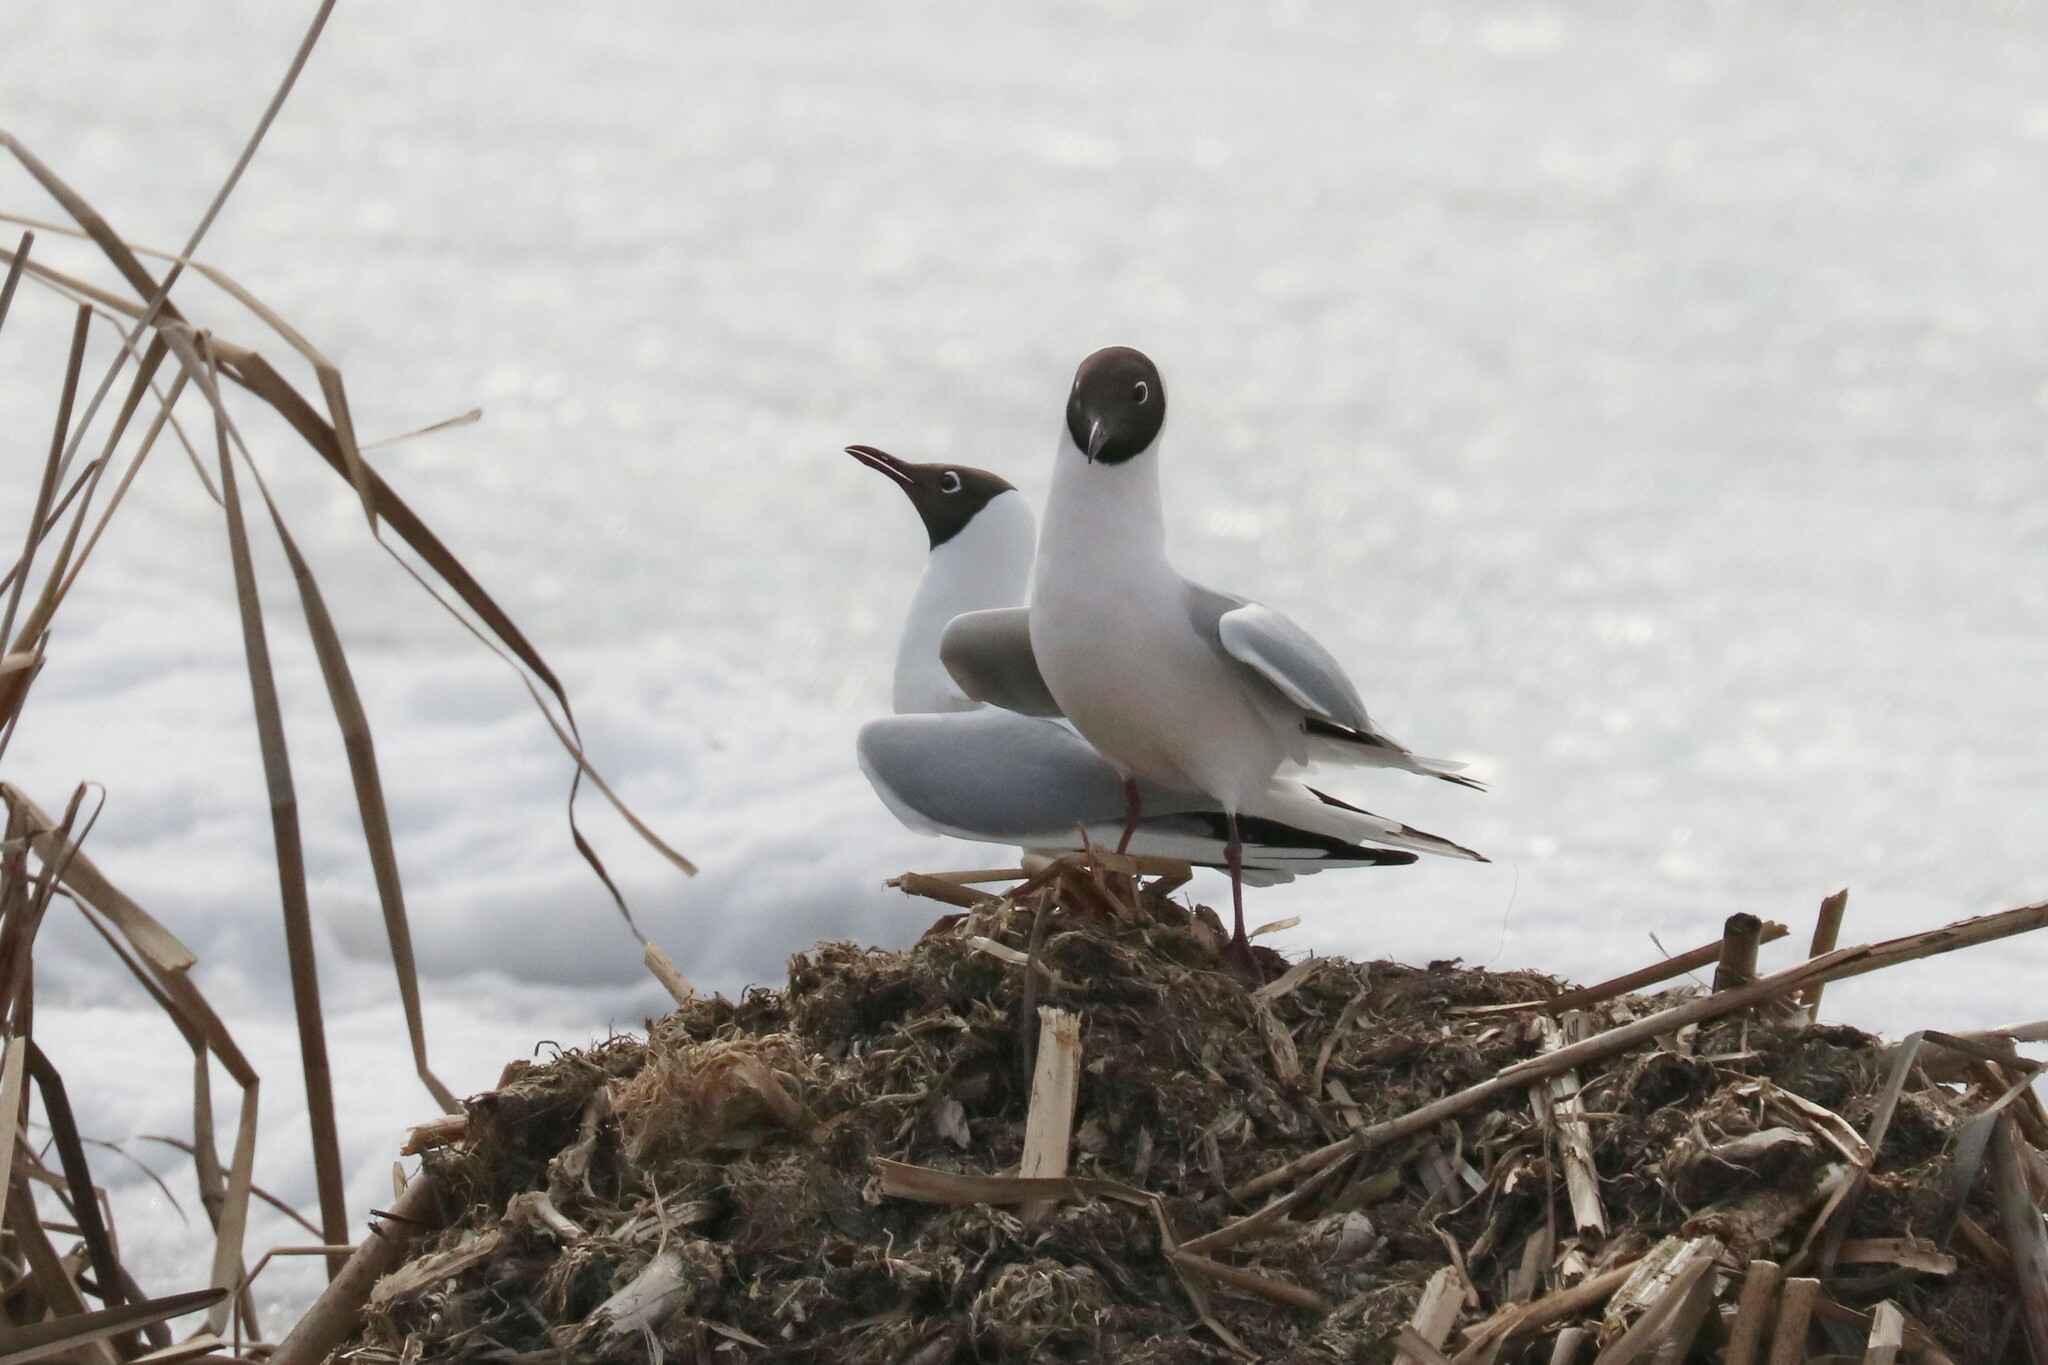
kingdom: Animalia
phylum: Chordata
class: Aves
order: Charadriiformes
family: Laridae
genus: Chroicocephalus
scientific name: Chroicocephalus ridibundus
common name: Black-headed gull
